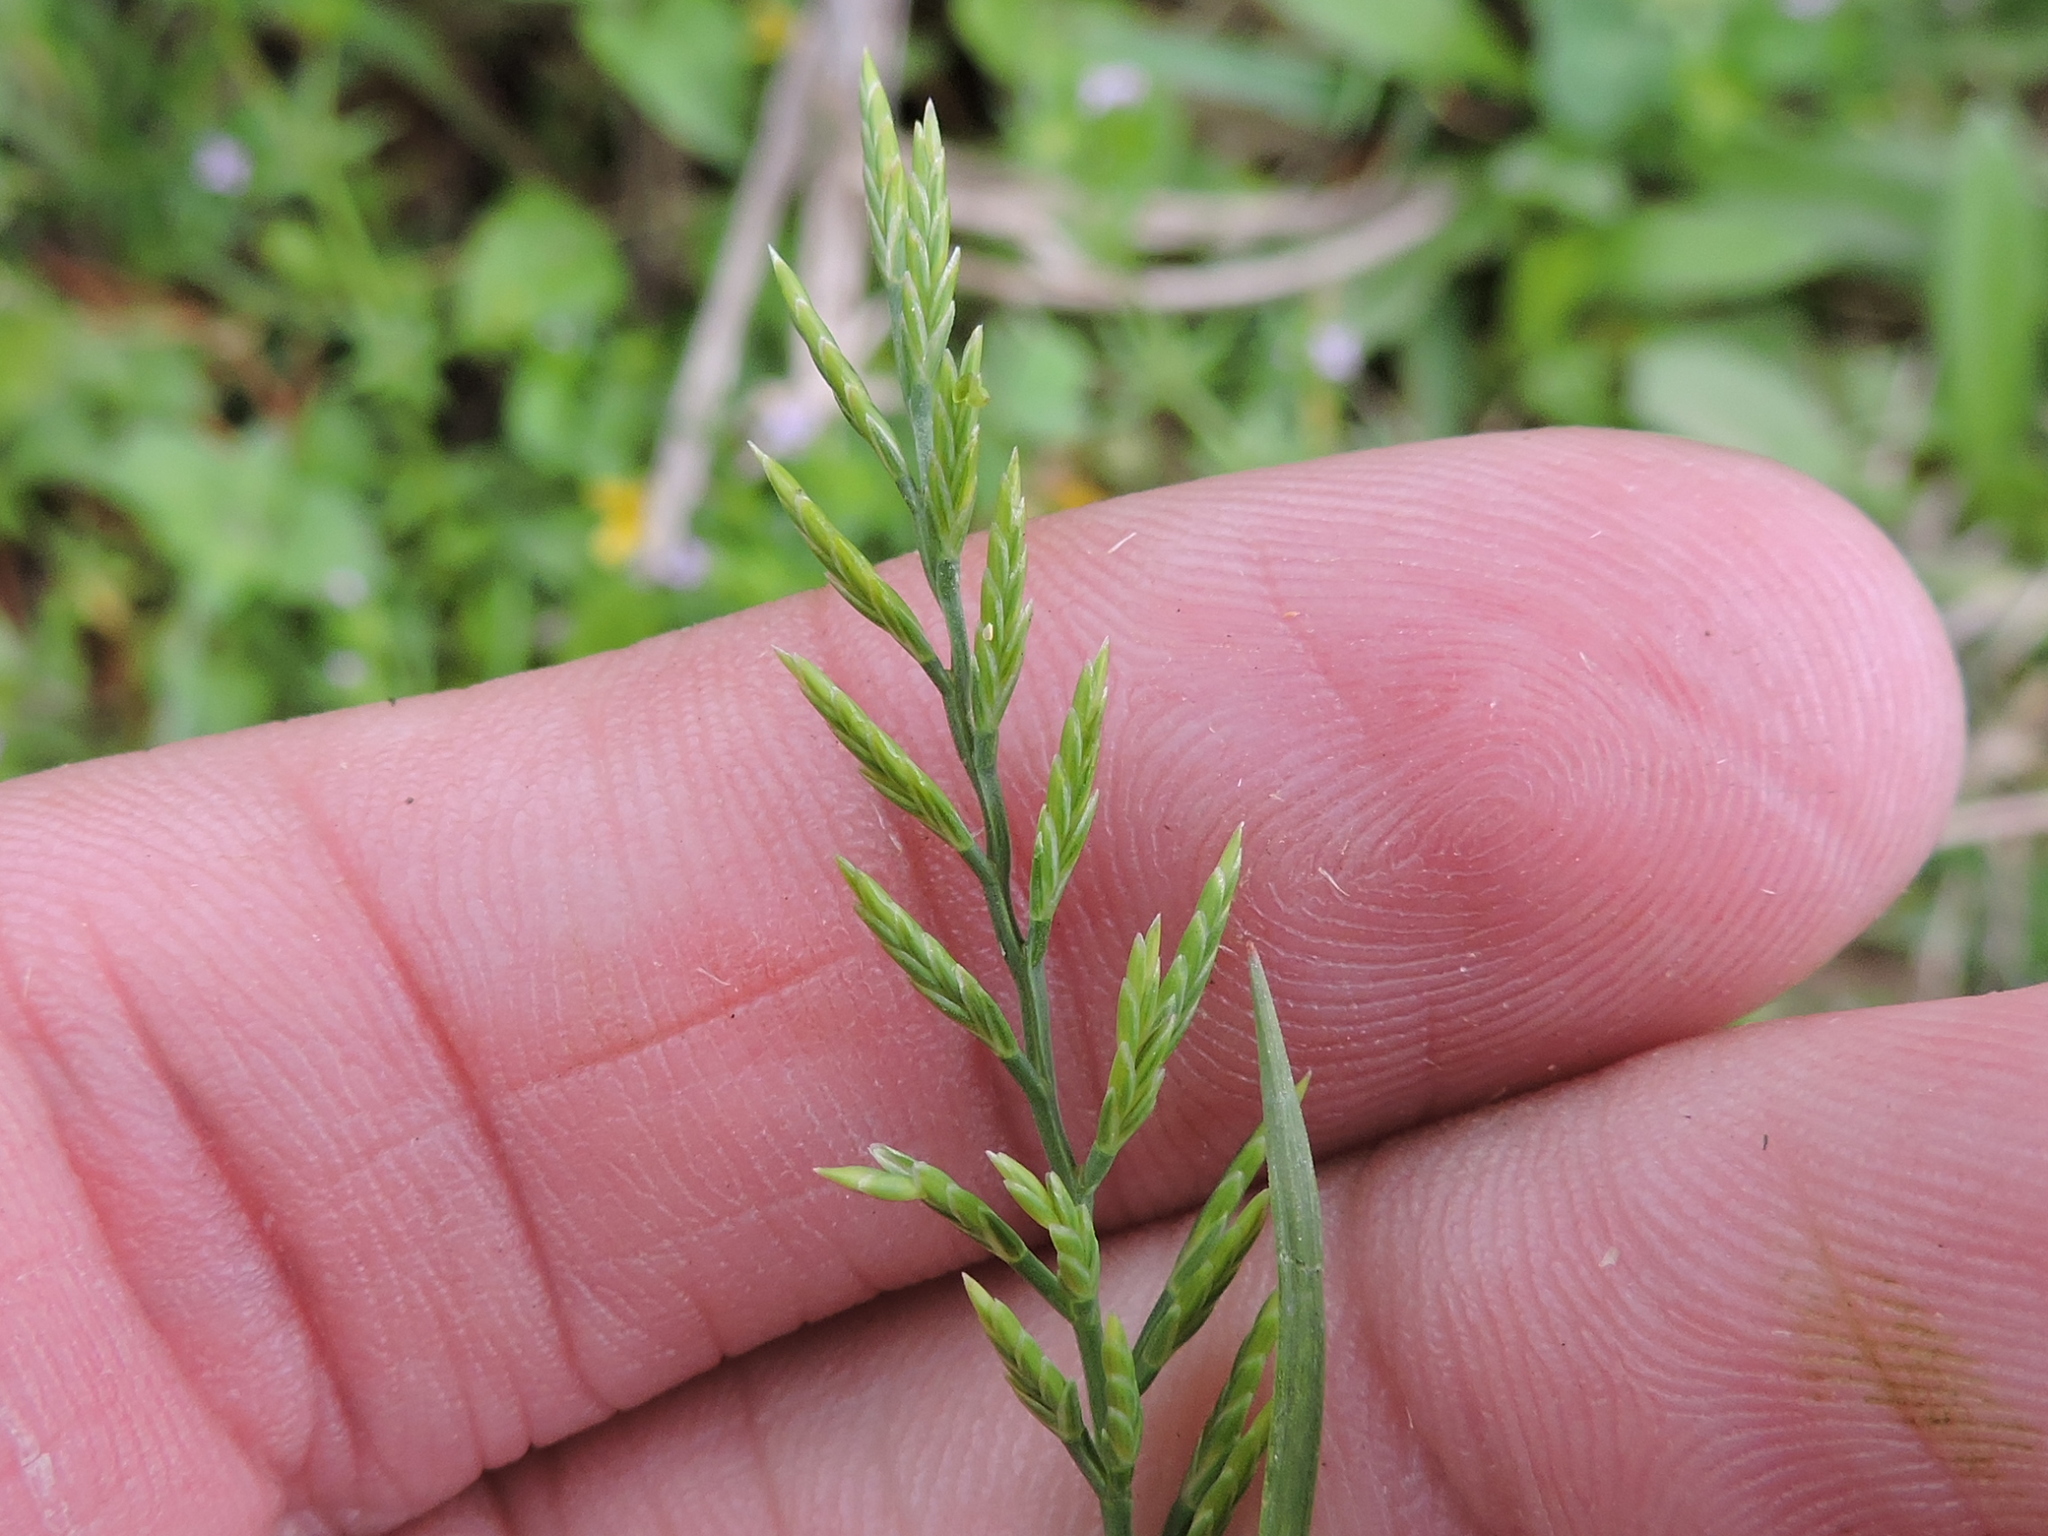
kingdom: Plantae
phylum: Tracheophyta
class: Liliopsida
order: Poales
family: Poaceae
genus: Catapodium
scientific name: Catapodium rigidum
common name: Fern-grass
